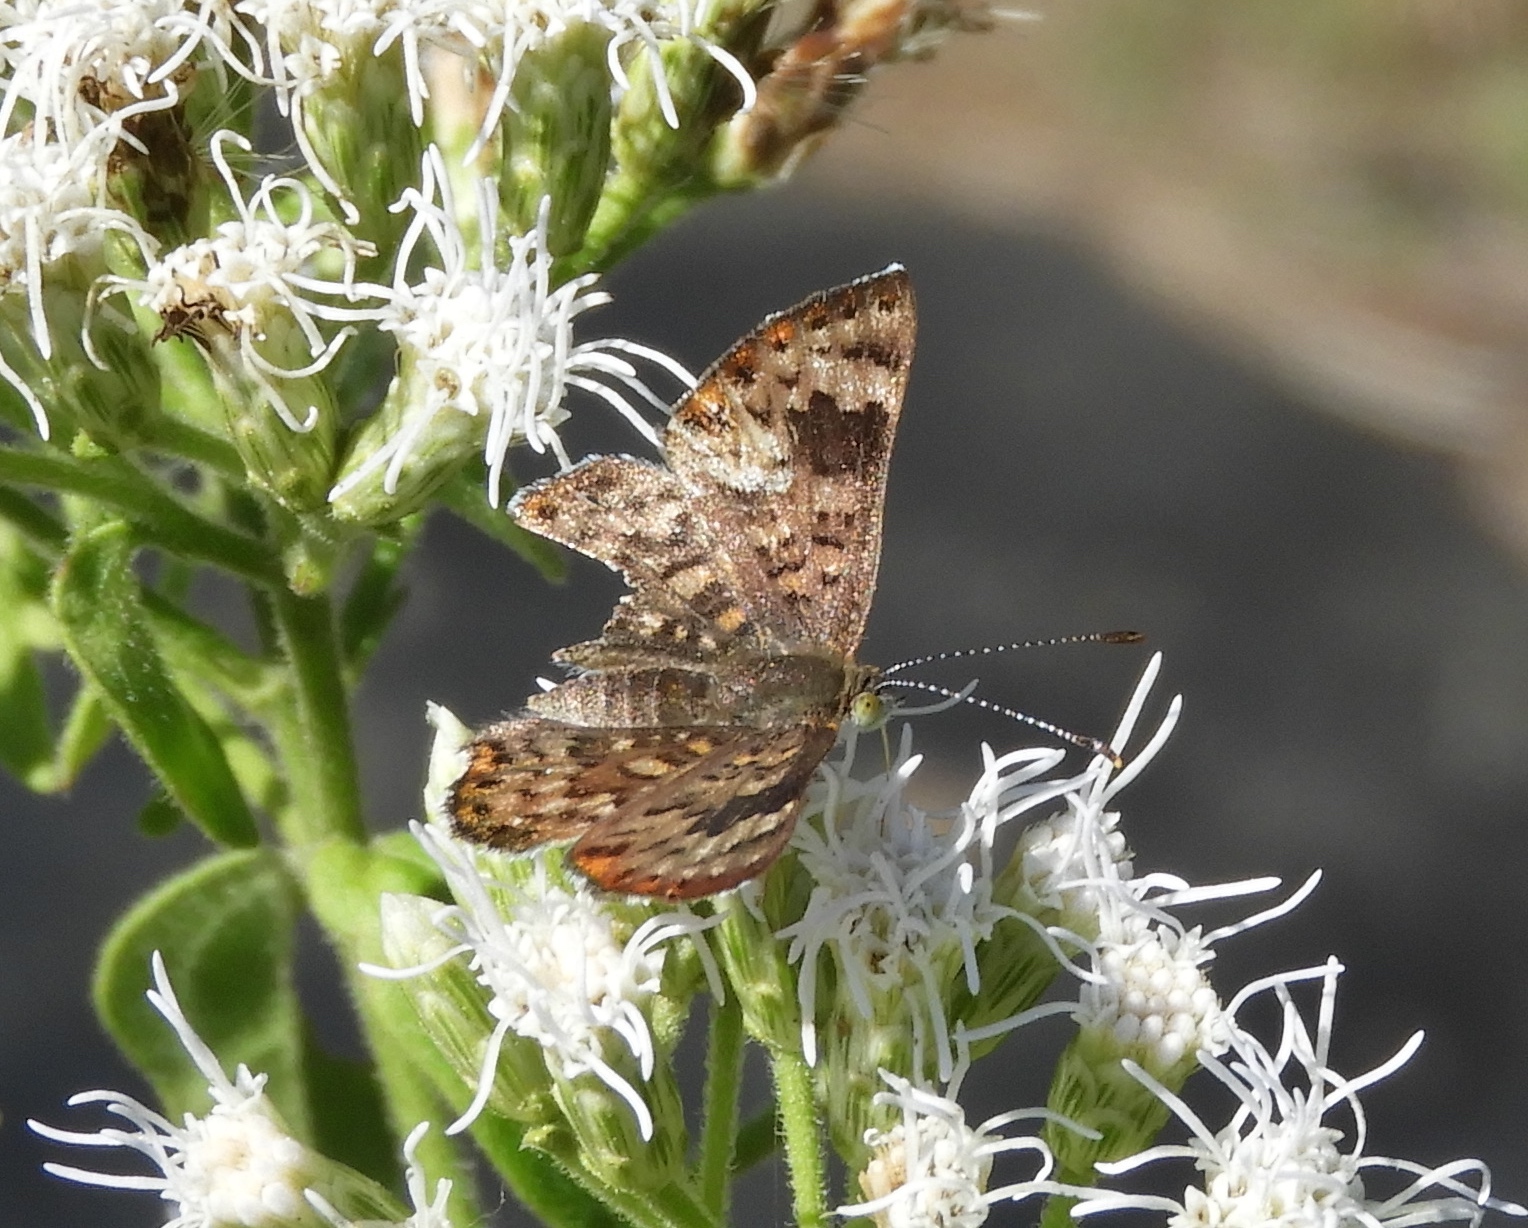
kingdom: Animalia
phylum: Arthropoda
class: Insecta
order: Lepidoptera
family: Riodinidae
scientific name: Riodinidae
